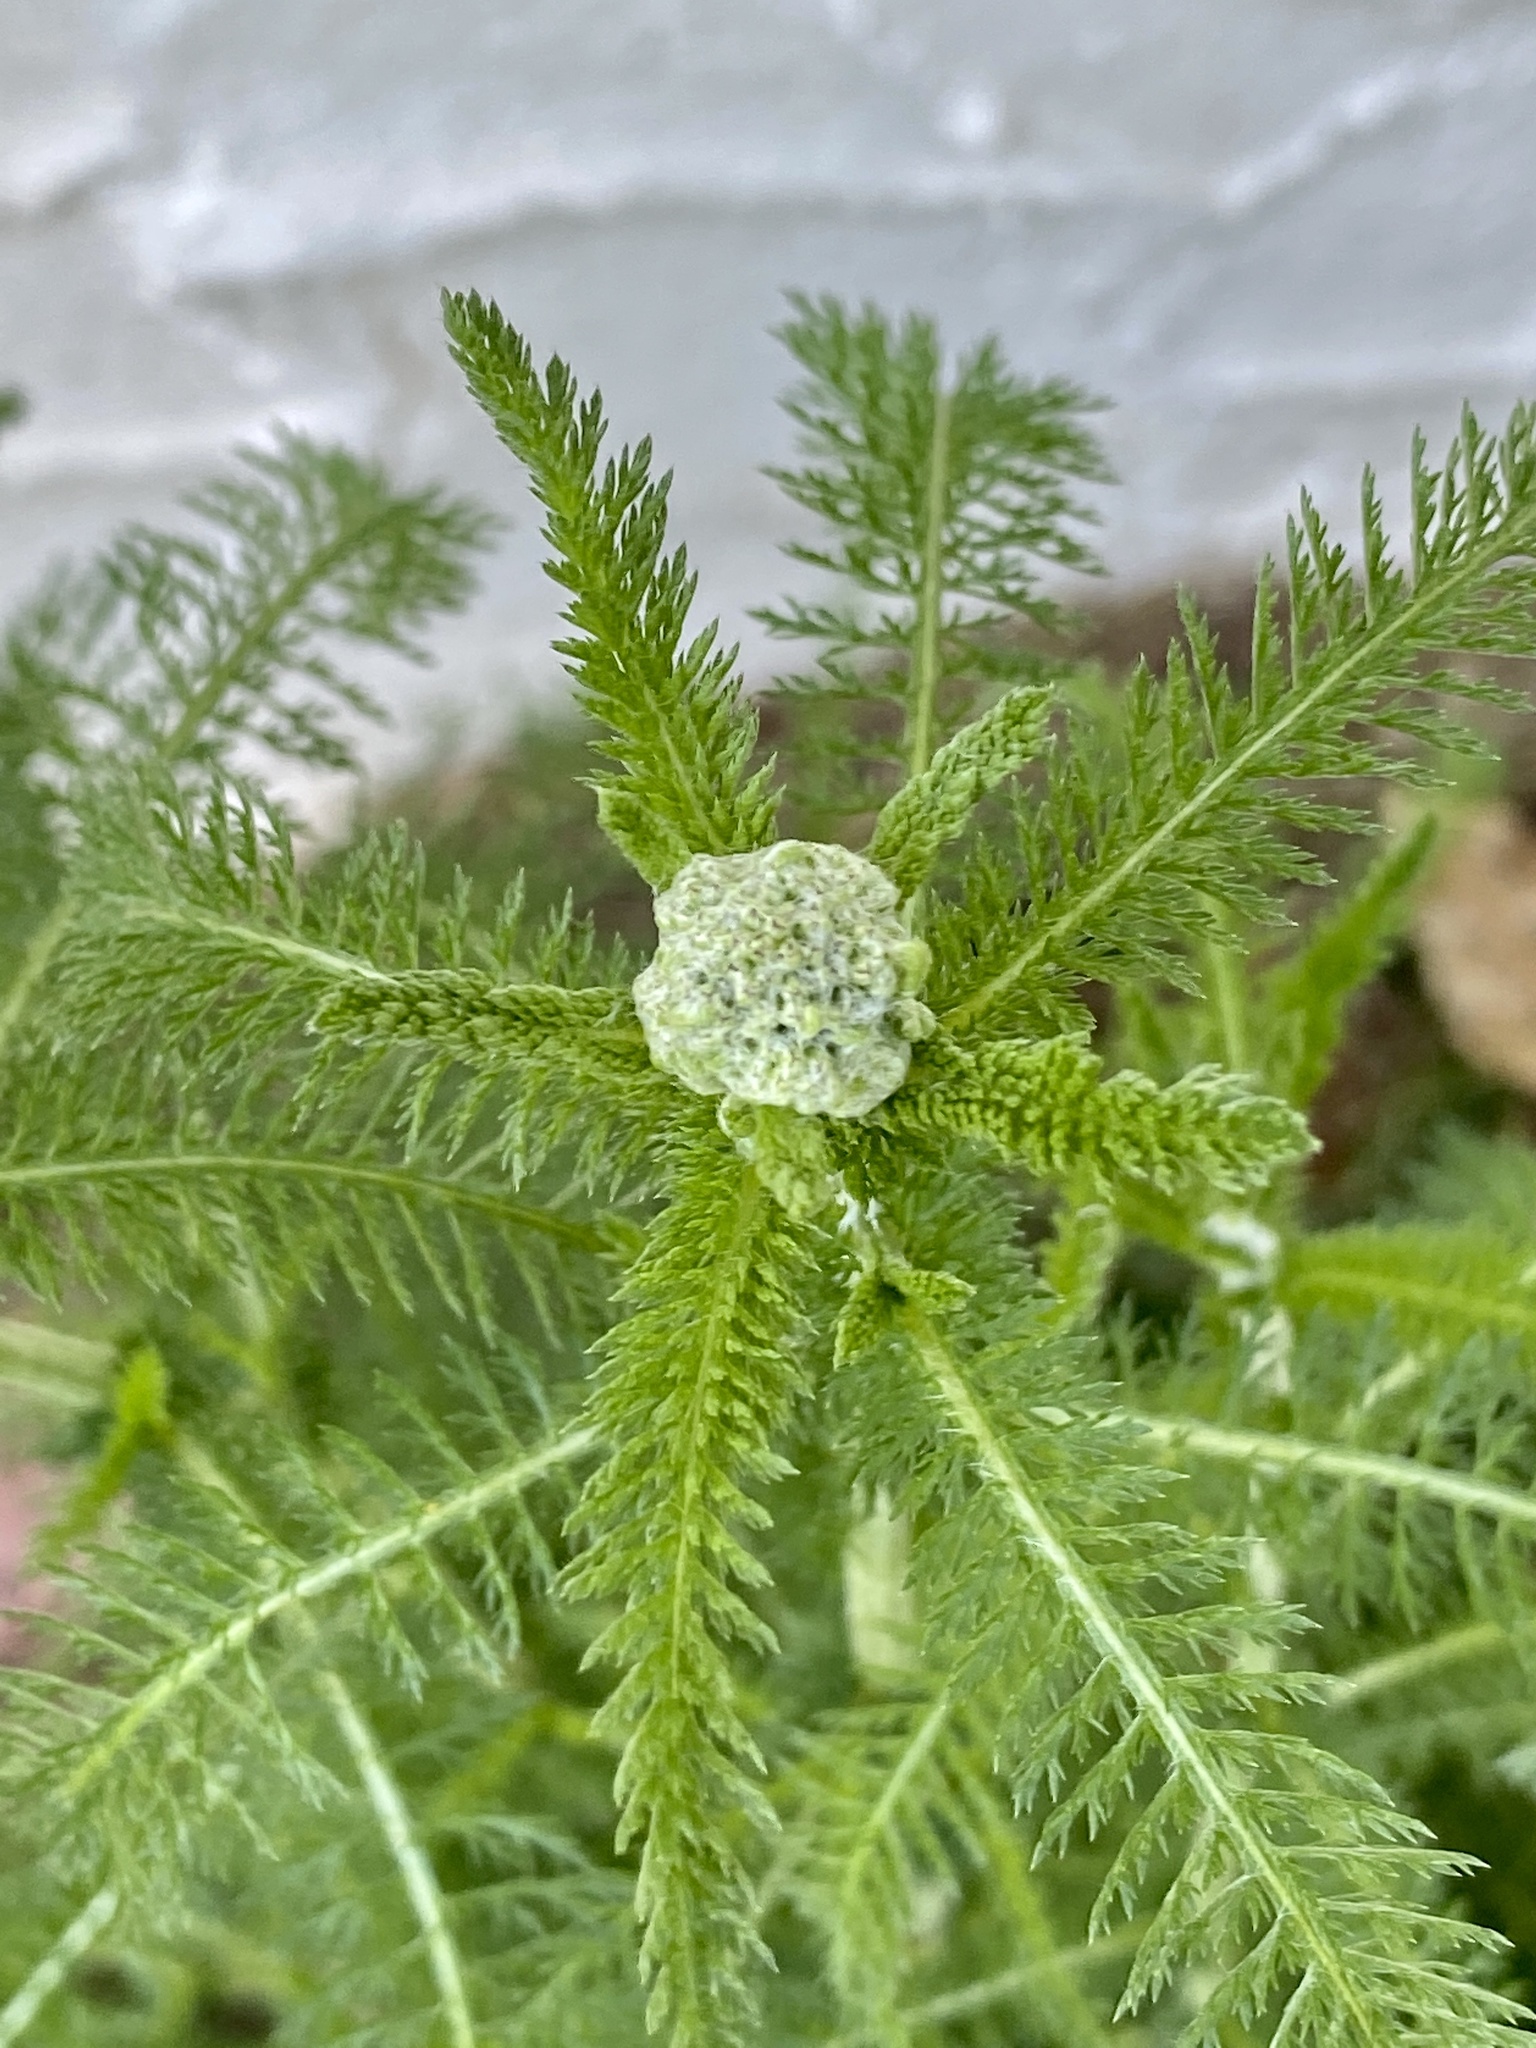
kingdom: Plantae
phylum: Tracheophyta
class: Magnoliopsida
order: Asterales
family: Asteraceae
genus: Achillea
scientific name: Achillea millefolium
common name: Yarrow
